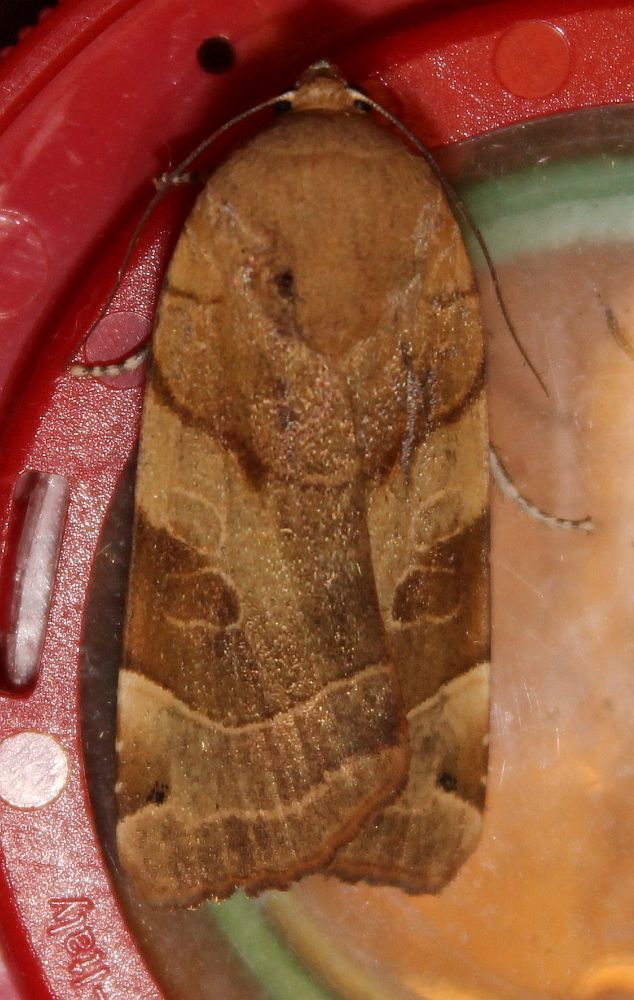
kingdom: Animalia
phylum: Arthropoda
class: Insecta
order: Lepidoptera
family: Noctuidae
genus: Noctua
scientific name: Noctua fimbriata
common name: Broad-bordered yellow underwing
